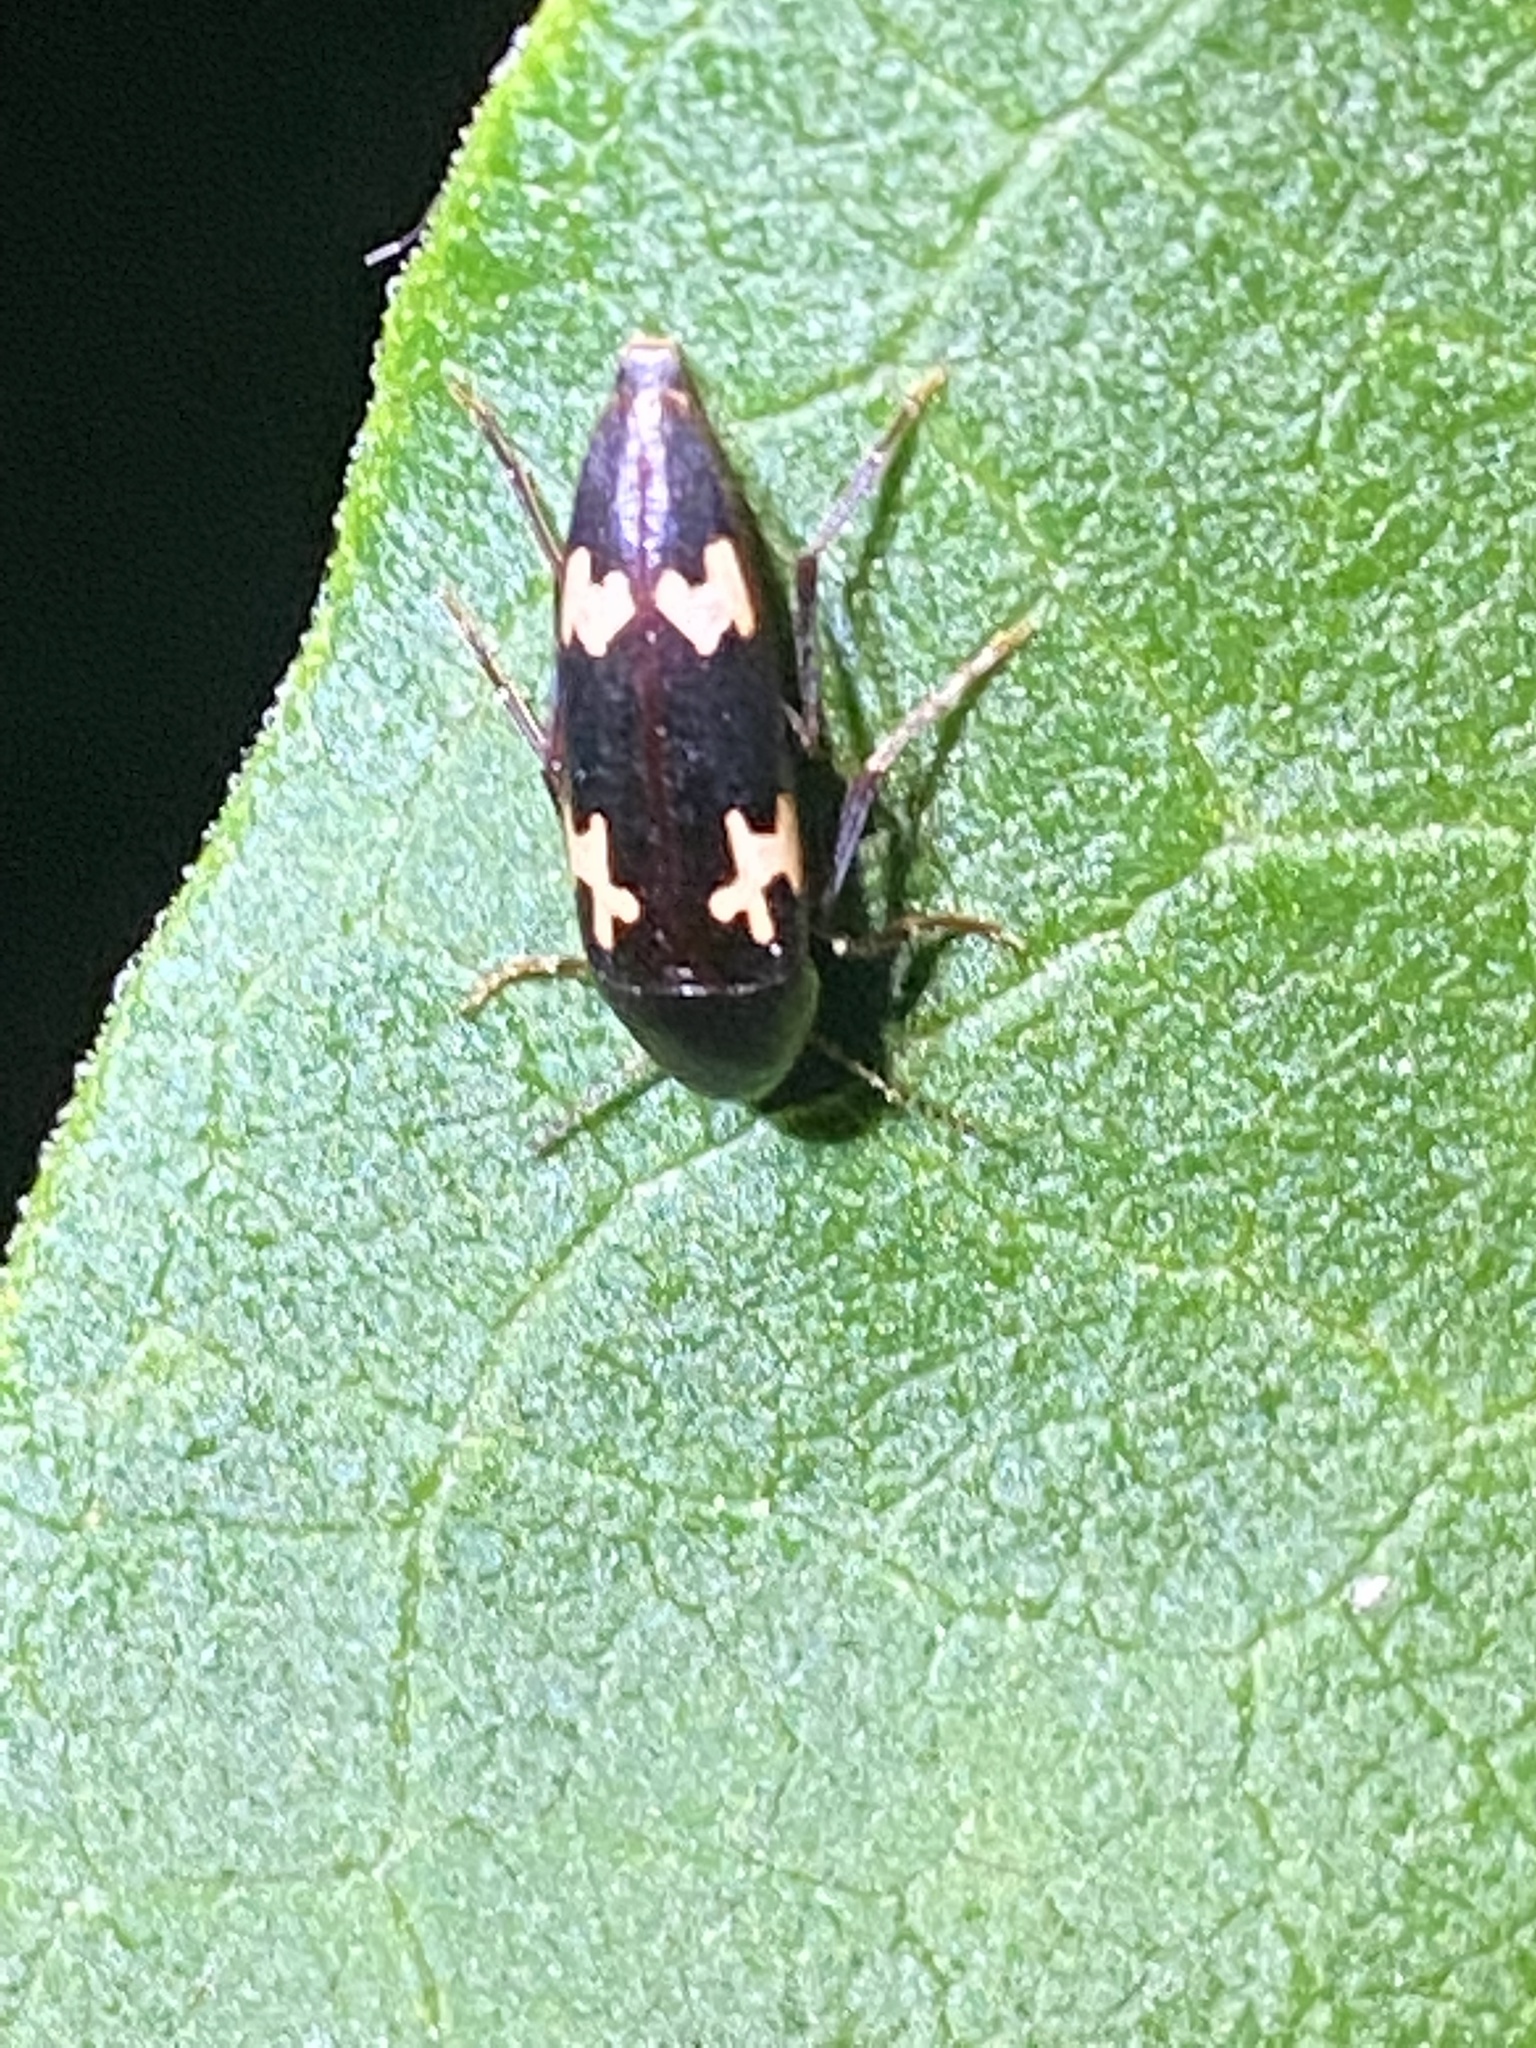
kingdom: Animalia
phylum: Arthropoda
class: Insecta
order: Coleoptera
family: Melandryidae
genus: Dircaea
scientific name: Dircaea liturata
